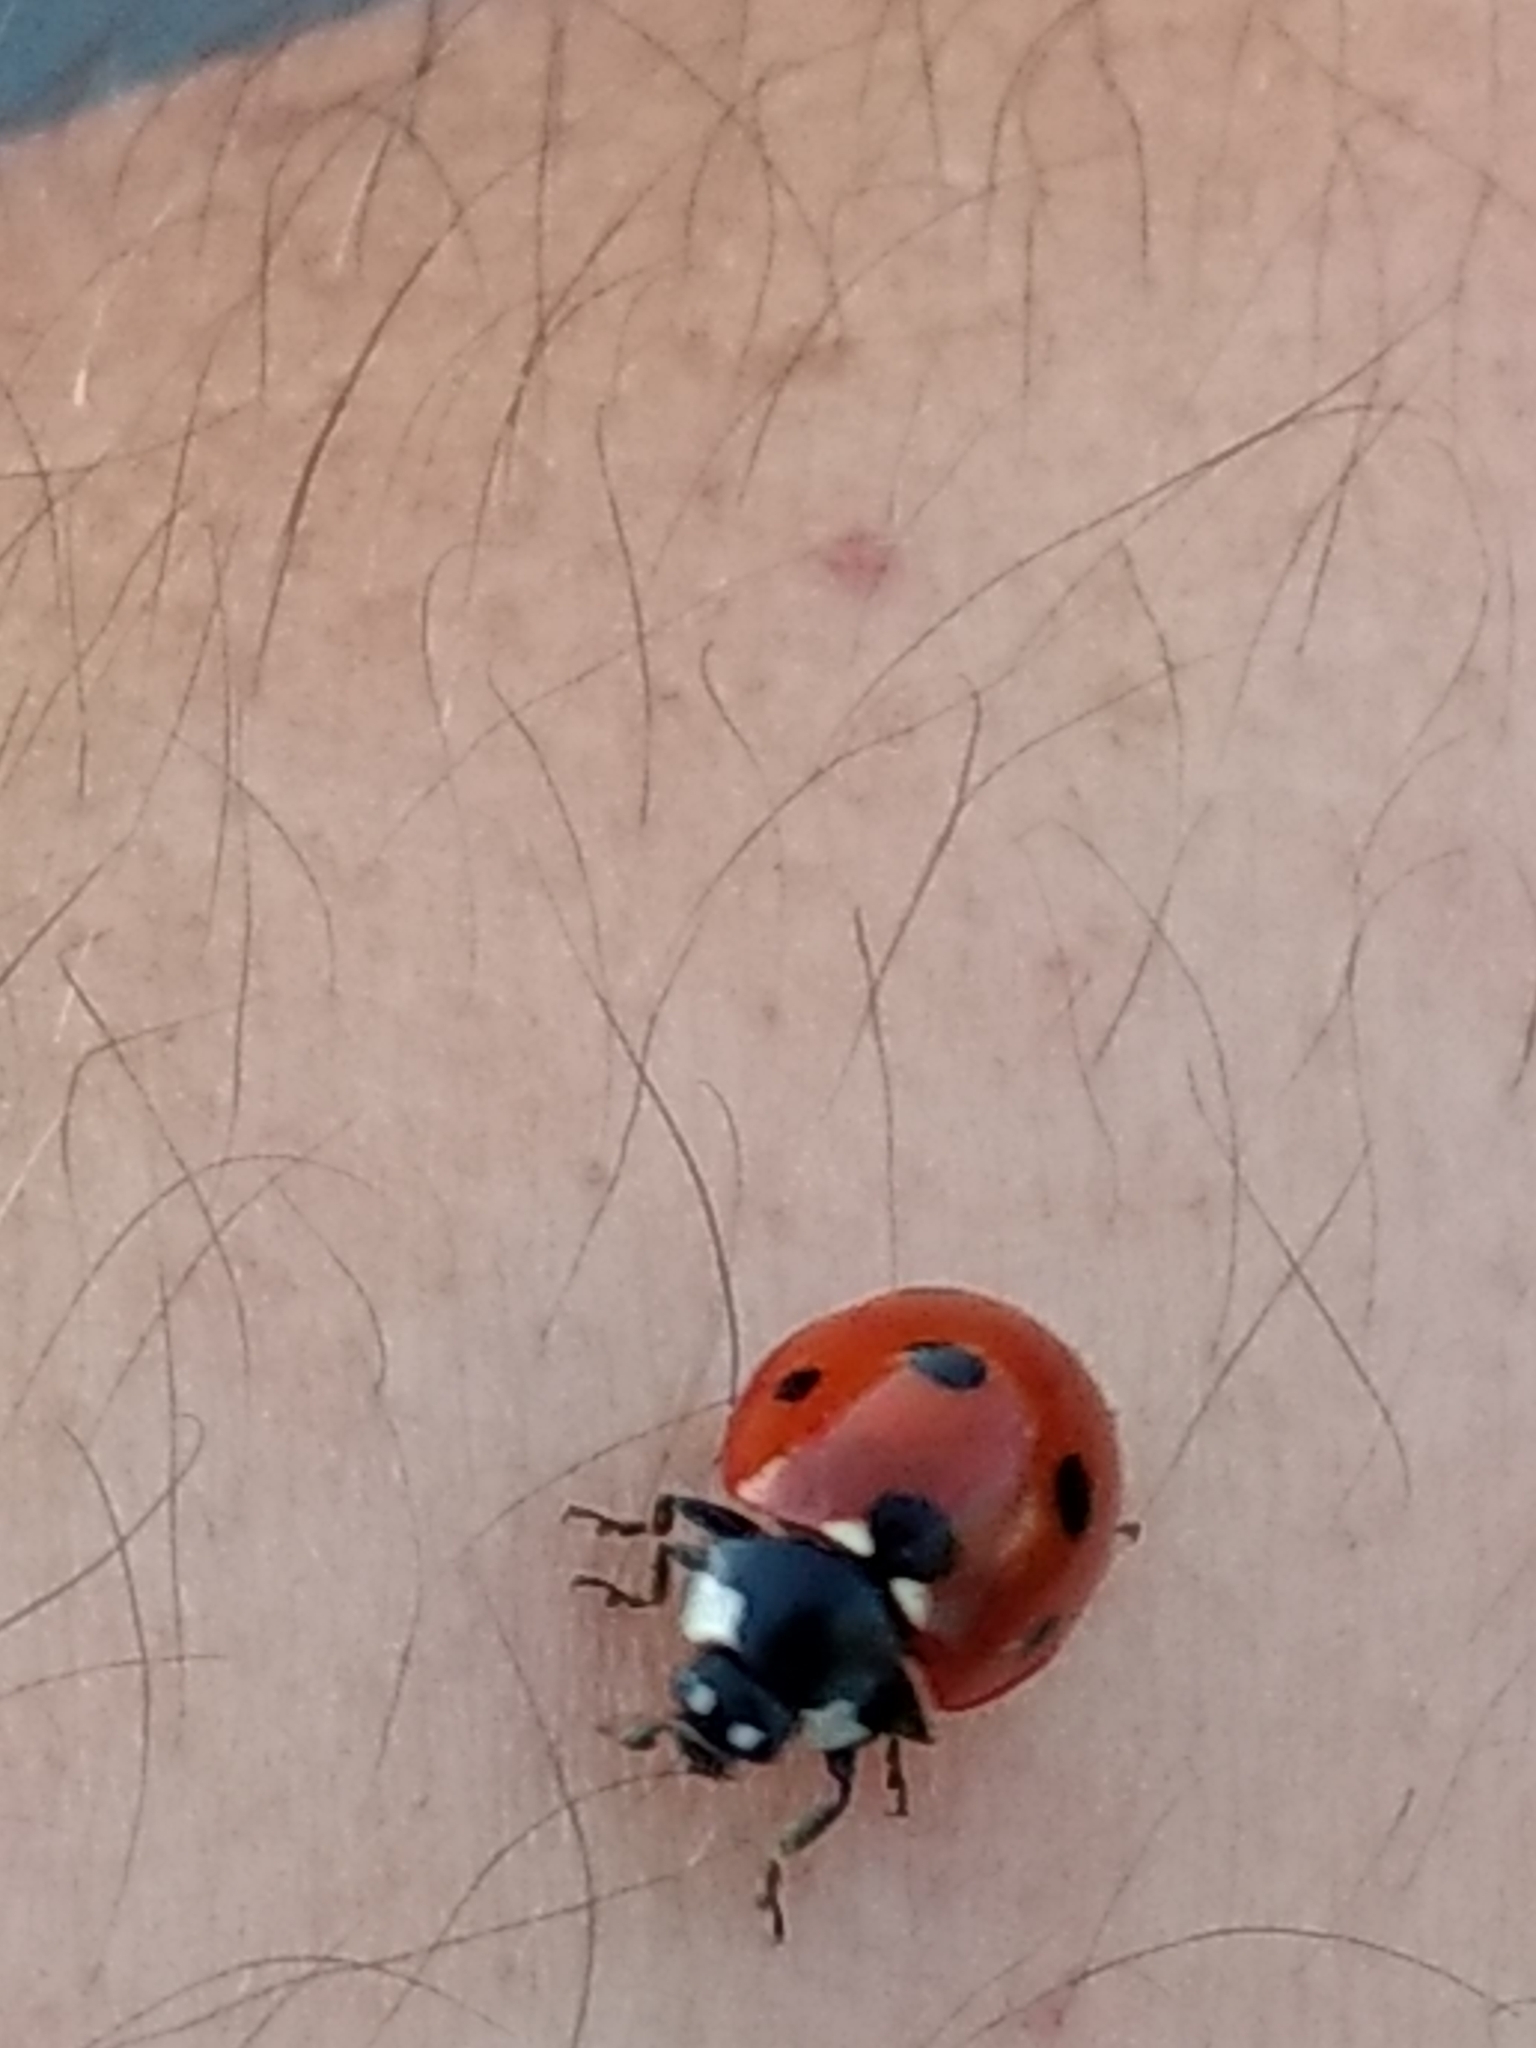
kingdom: Animalia
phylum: Arthropoda
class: Insecta
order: Coleoptera
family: Coccinellidae
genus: Coccinella
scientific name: Coccinella septempunctata
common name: Sevenspotted lady beetle
